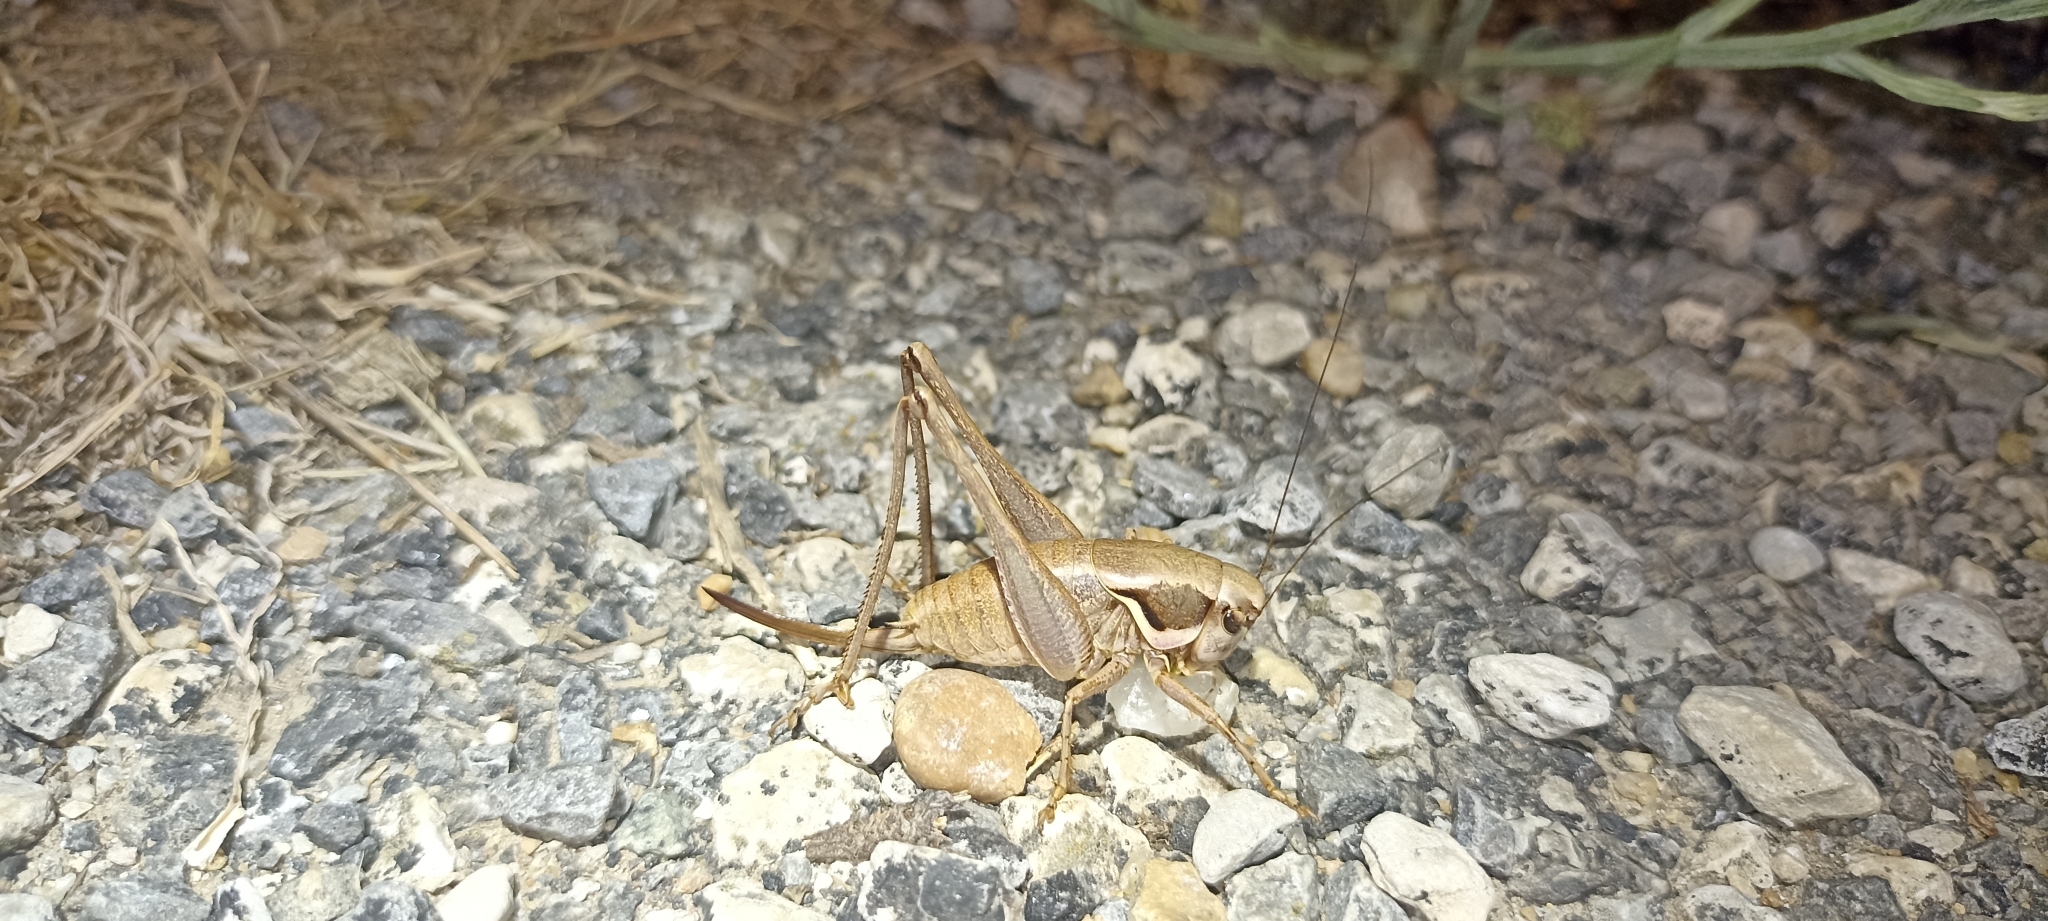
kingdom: Animalia
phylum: Arthropoda
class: Insecta
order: Orthoptera
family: Tettigoniidae
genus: Pholidoptera
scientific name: Pholidoptera femorata
